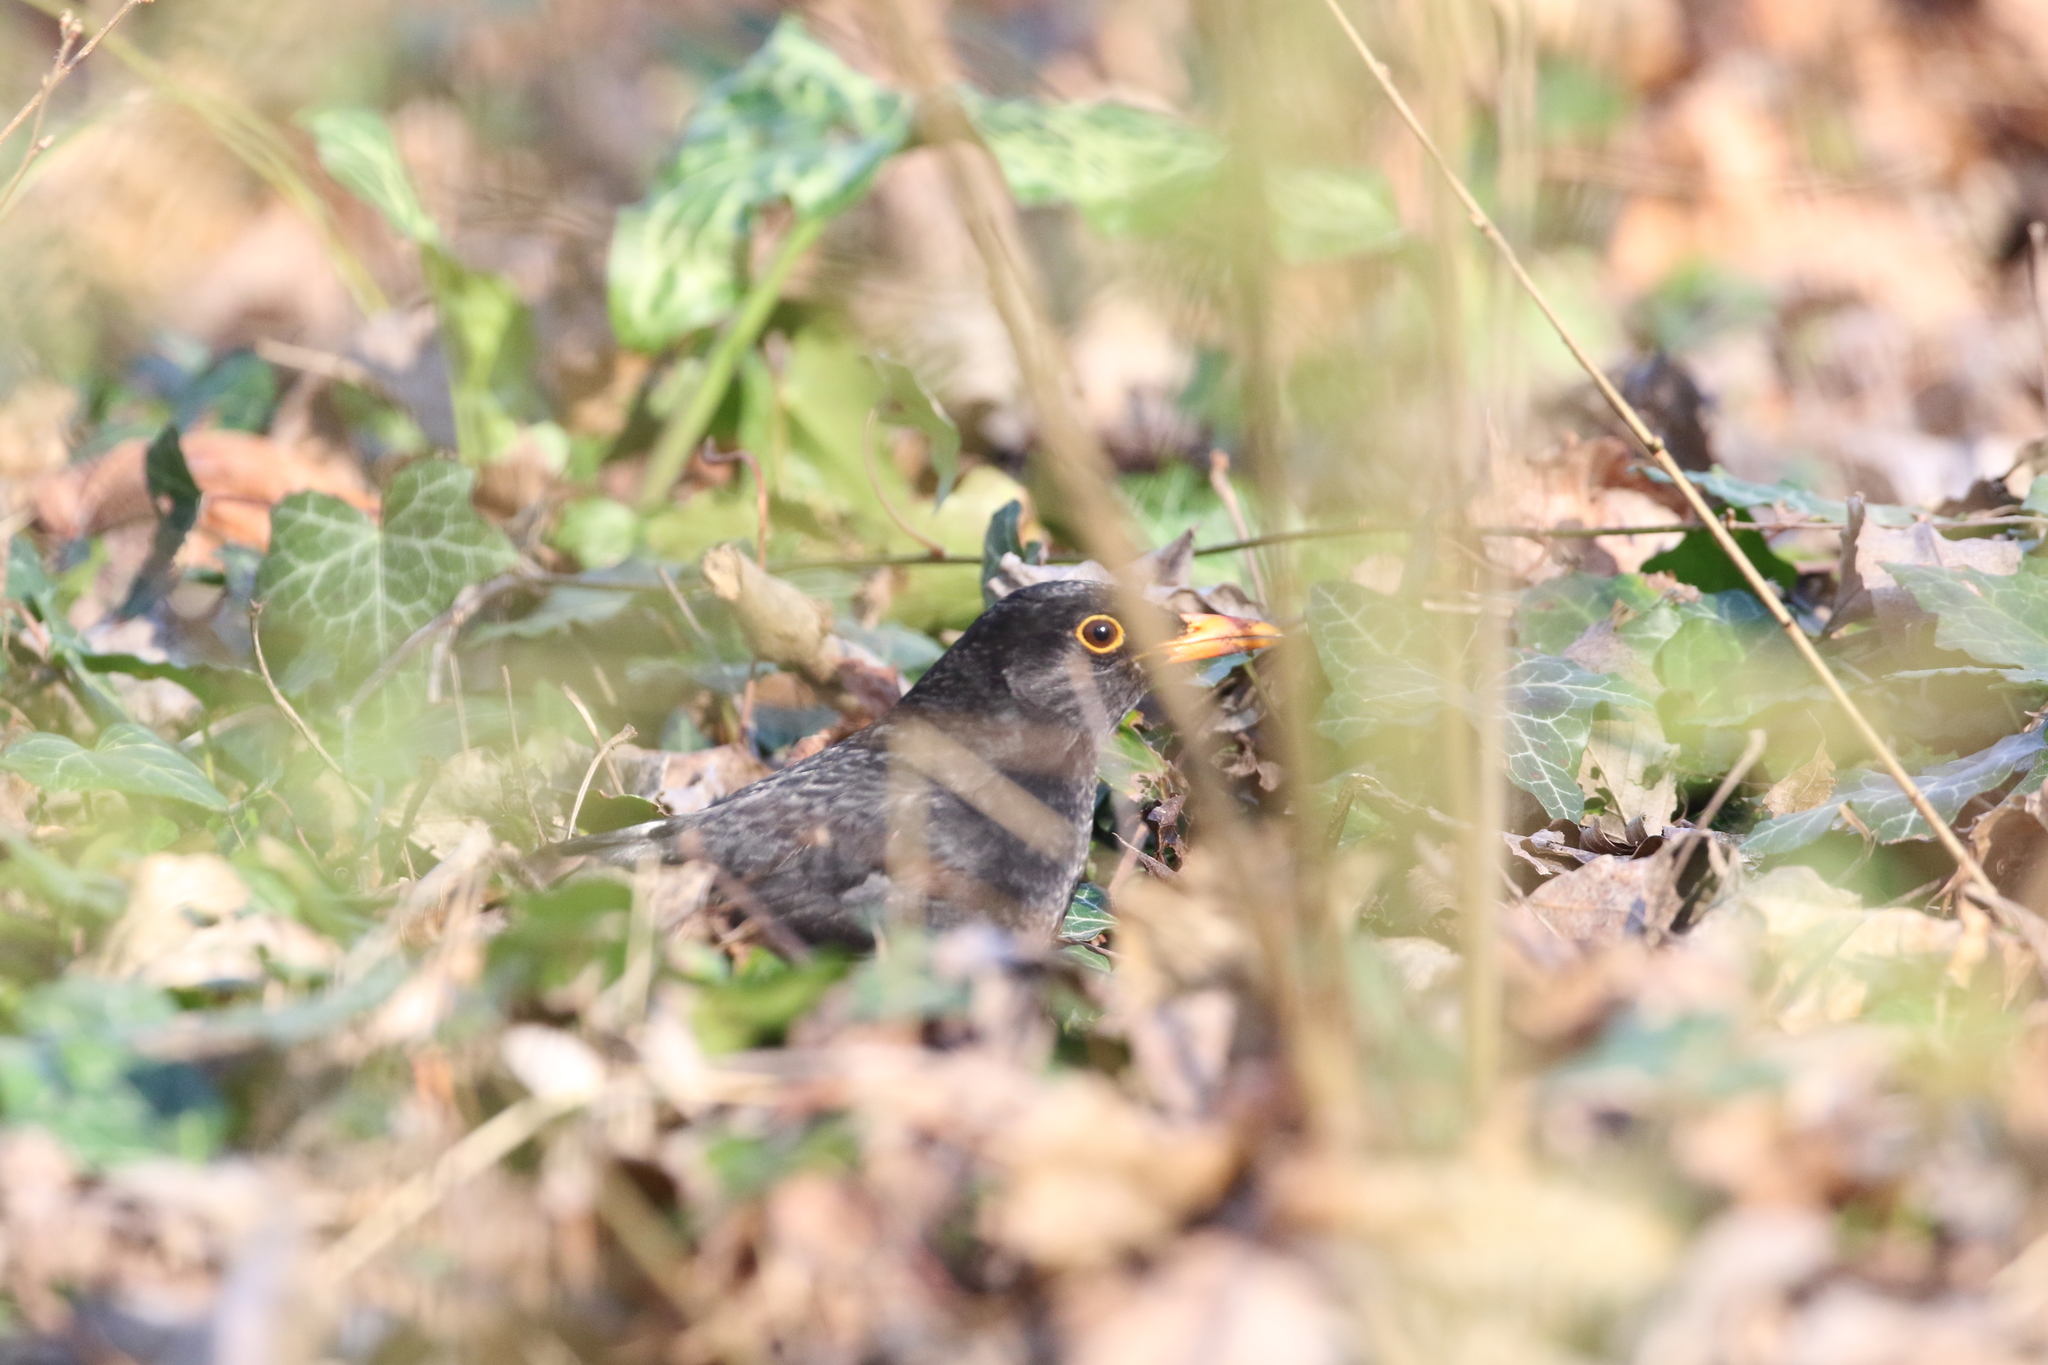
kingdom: Animalia
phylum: Chordata
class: Aves
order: Passeriformes
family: Turdidae
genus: Turdus
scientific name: Turdus merula
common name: Common blackbird
